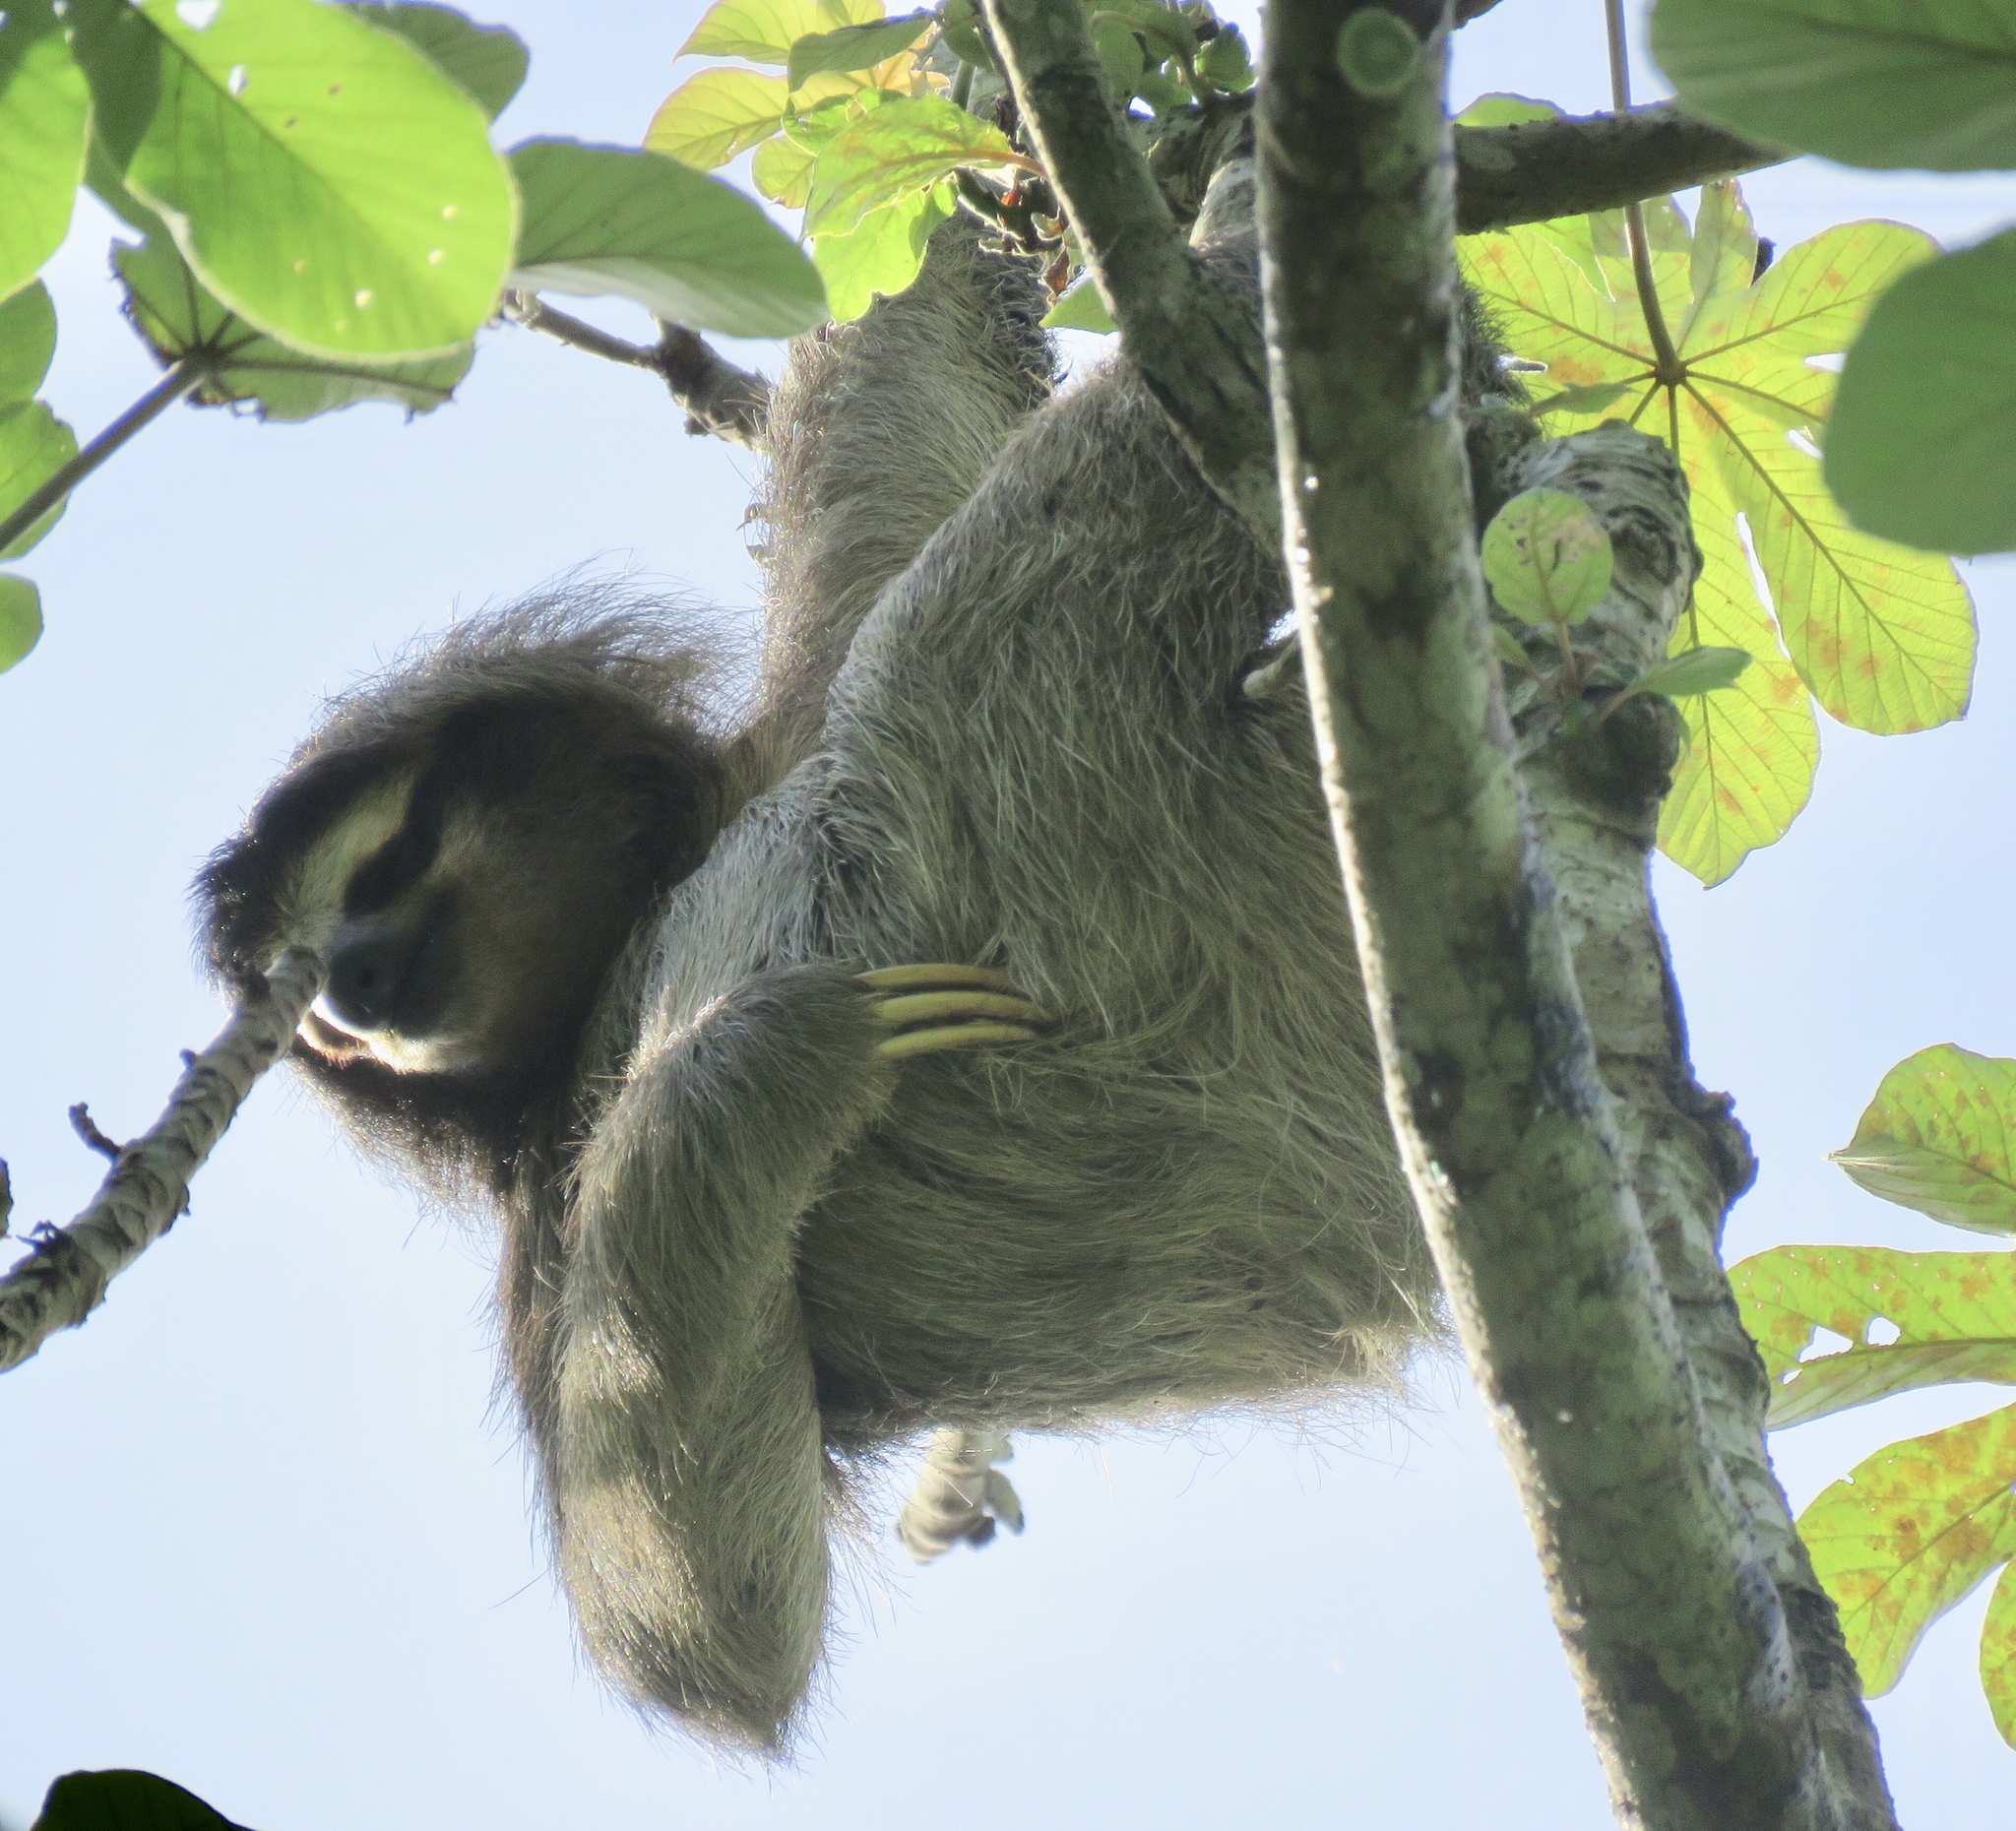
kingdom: Animalia
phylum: Chordata
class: Mammalia
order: Pilosa
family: Bradypodidae
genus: Bradypus
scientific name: Bradypus variegatus
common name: Brown-throated three-toed sloth
